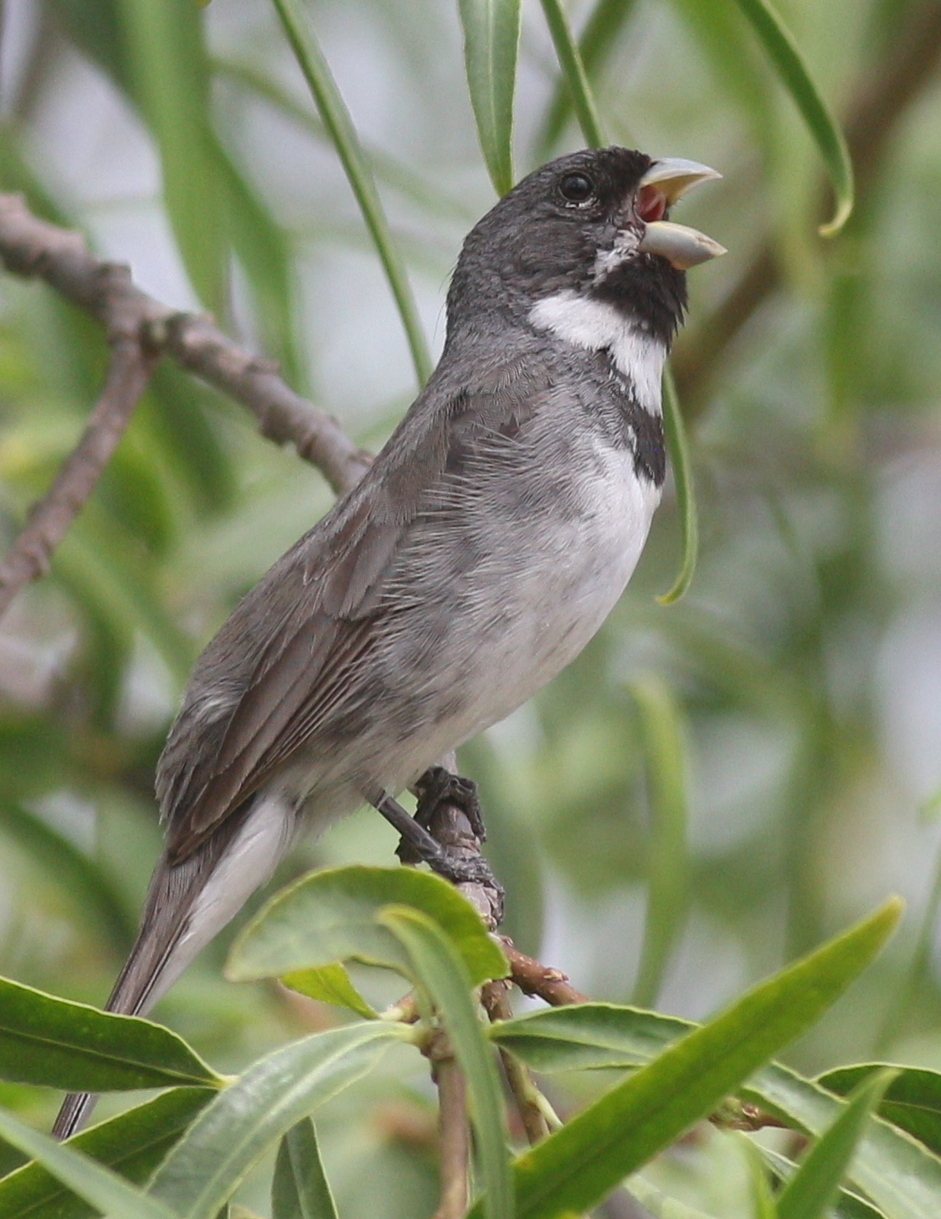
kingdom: Animalia
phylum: Chordata
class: Aves
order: Passeriformes
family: Thraupidae
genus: Sporophila
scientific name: Sporophila caerulescens
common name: Double-collared seedeater
